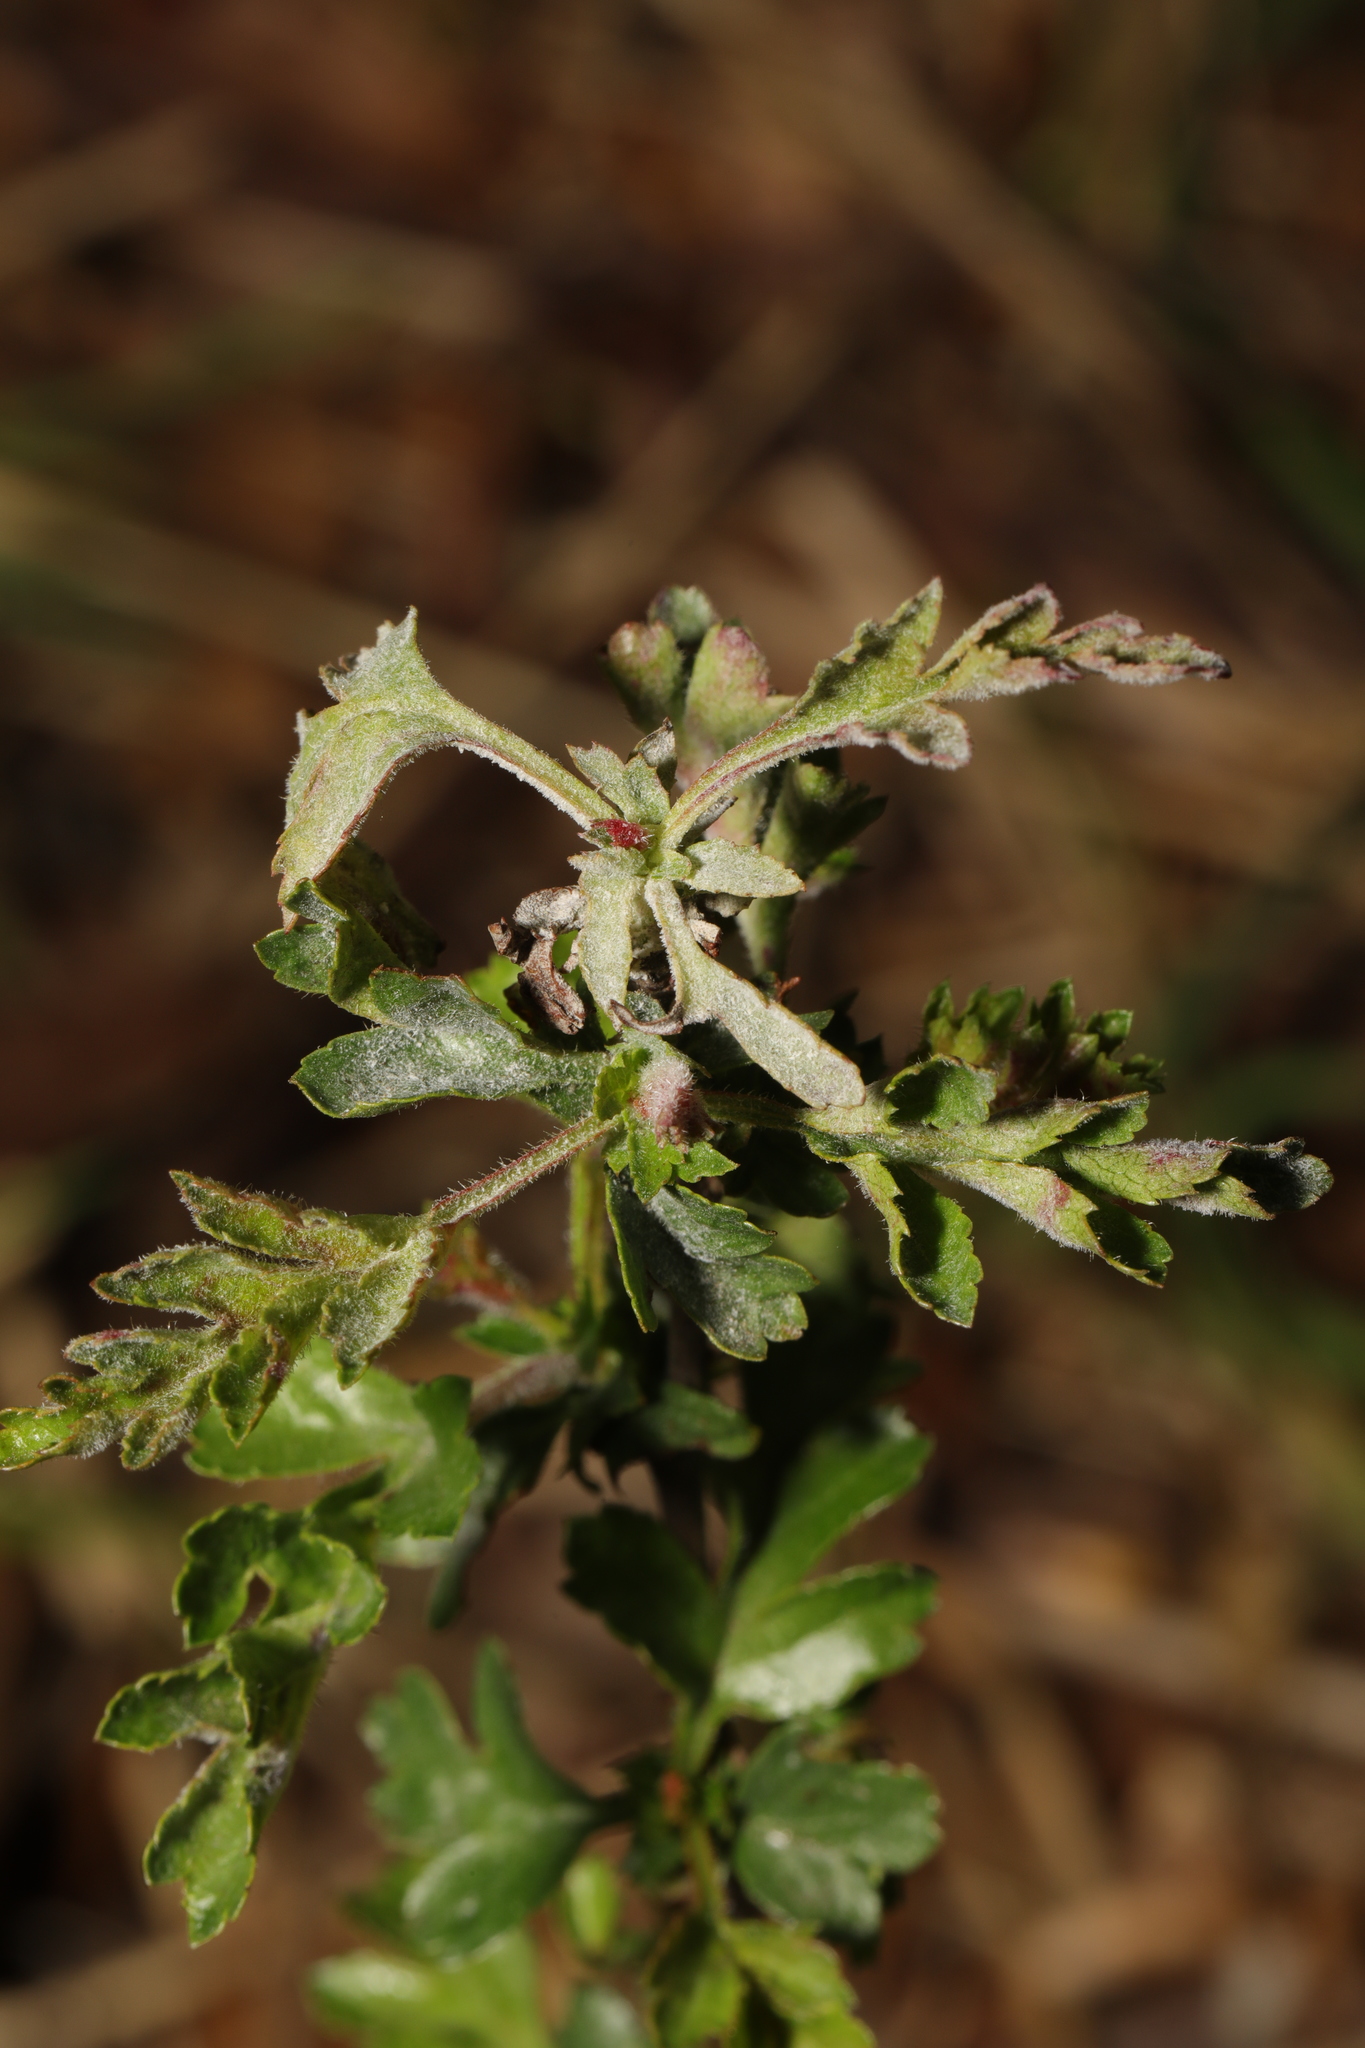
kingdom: Fungi
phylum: Ascomycota
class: Leotiomycetes
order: Helotiales
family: Erysiphaceae
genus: Podosphaera
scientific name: Podosphaera clandestina
